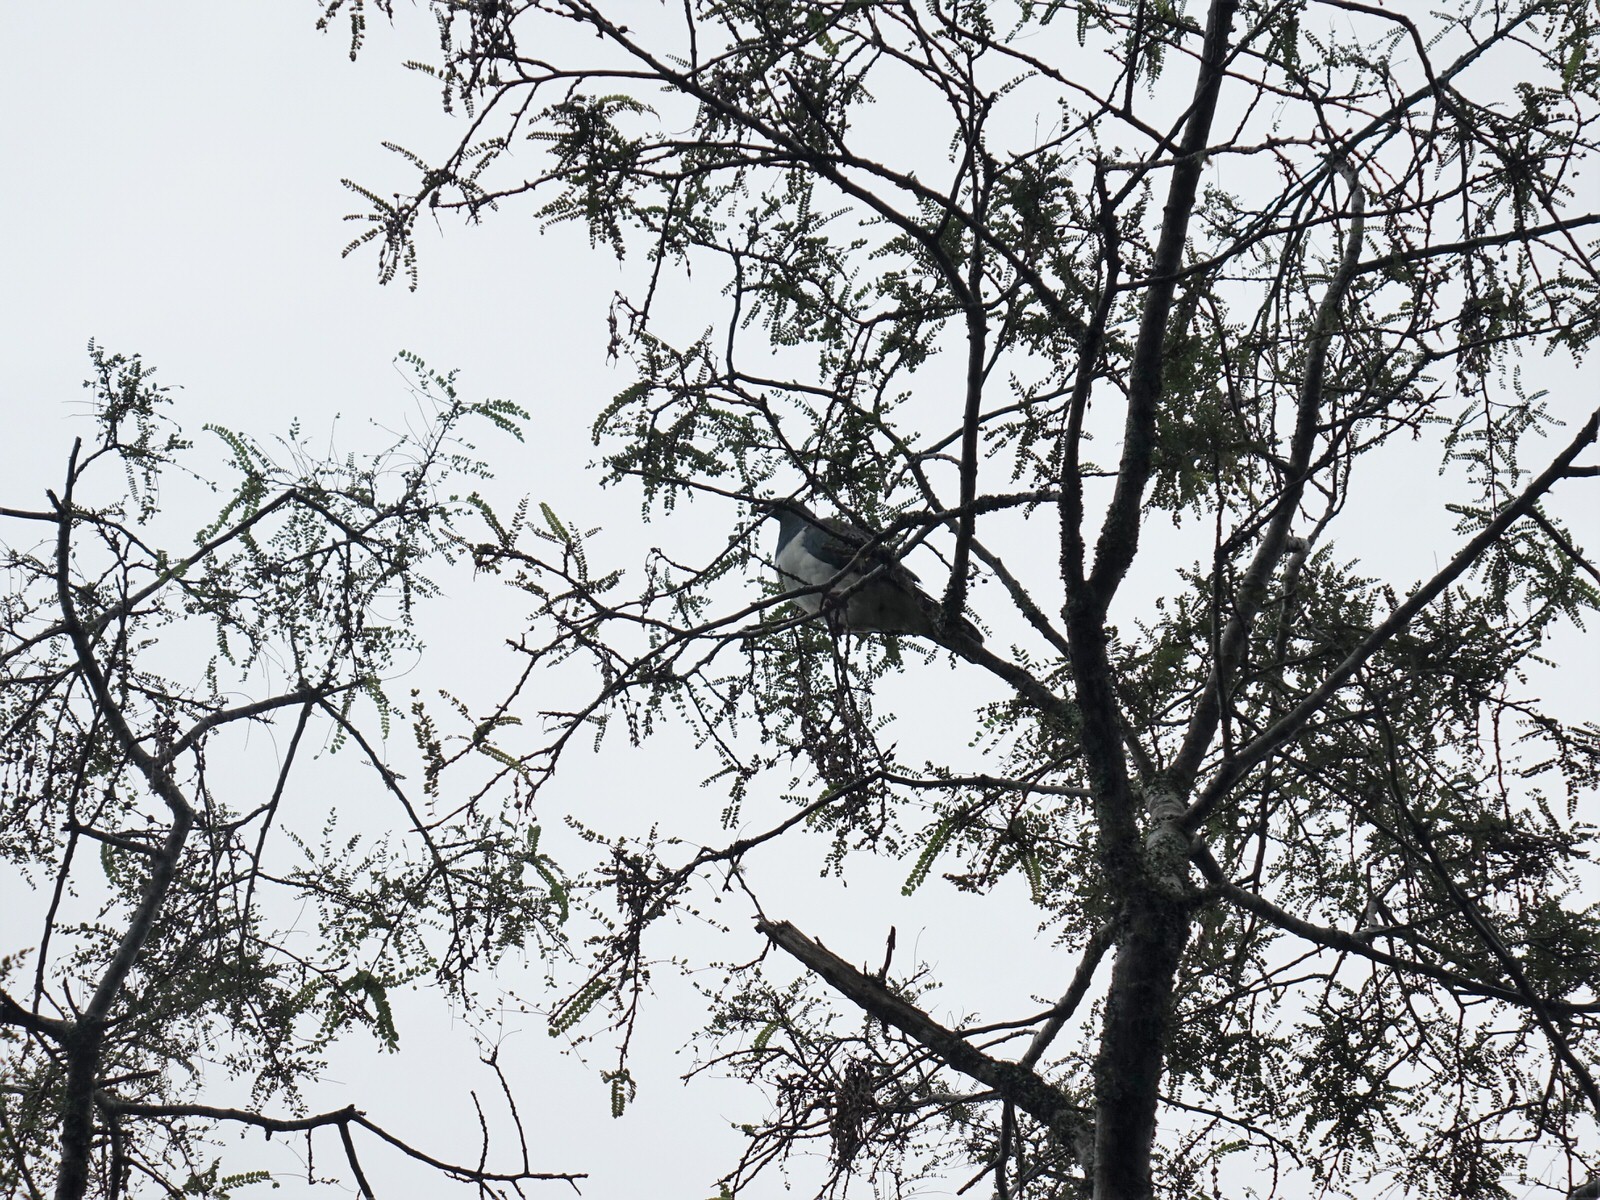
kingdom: Animalia
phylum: Chordata
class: Aves
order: Columbiformes
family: Columbidae
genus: Hemiphaga
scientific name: Hemiphaga novaeseelandiae
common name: New zealand pigeon
